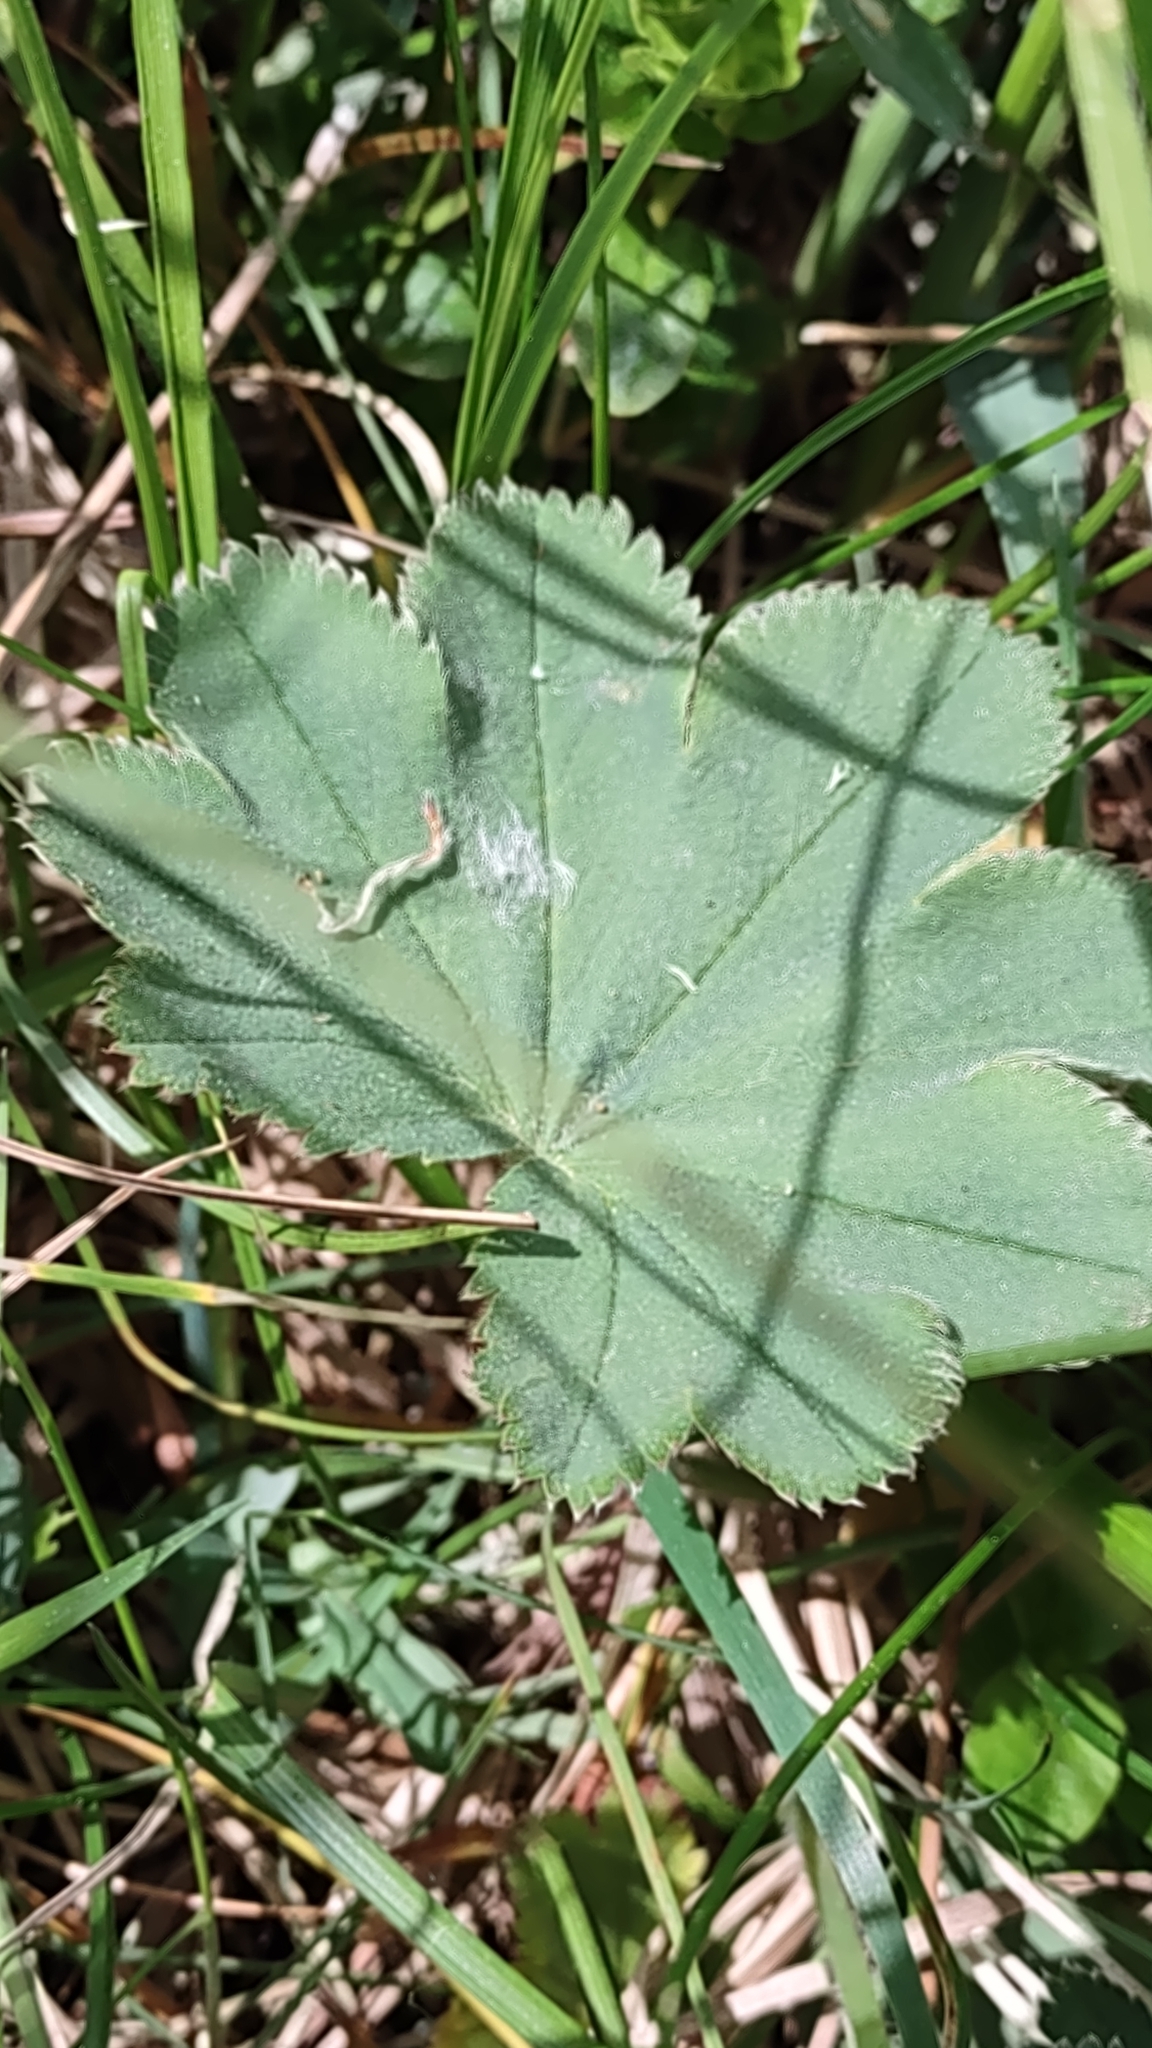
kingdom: Plantae
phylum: Tracheophyta
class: Magnoliopsida
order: Rosales
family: Rosaceae
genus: Alchemilla
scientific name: Alchemilla monticola
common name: Hairy lady's mantle
